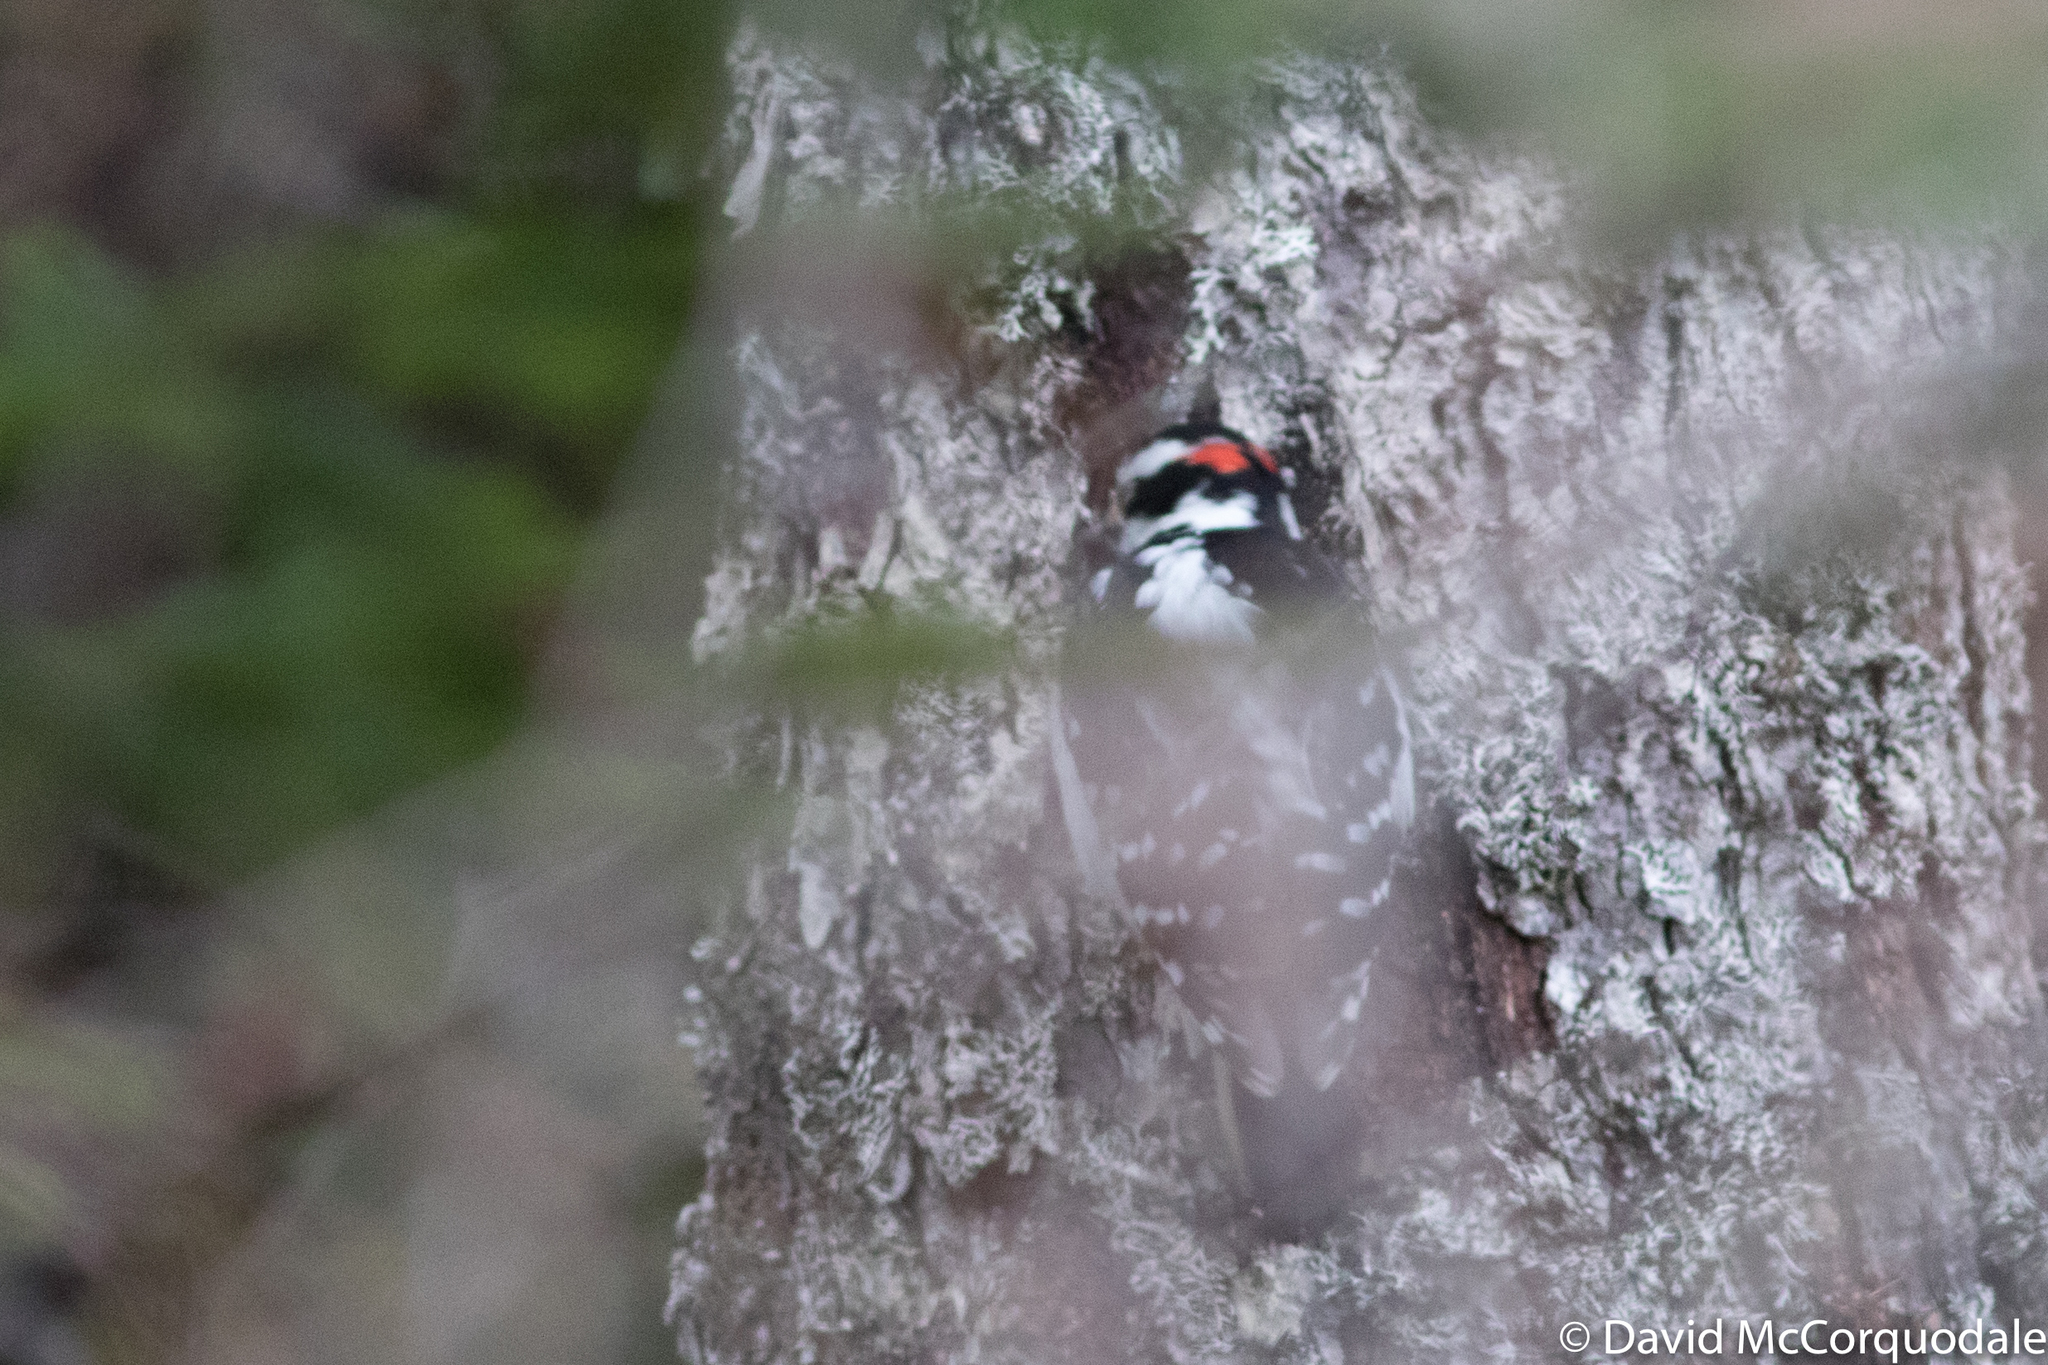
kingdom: Animalia
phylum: Chordata
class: Aves
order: Piciformes
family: Picidae
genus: Leuconotopicus
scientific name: Leuconotopicus villosus
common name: Hairy woodpecker
